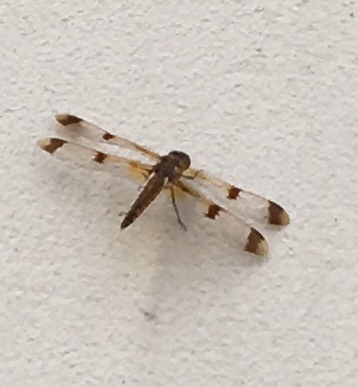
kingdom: Animalia
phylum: Arthropoda
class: Insecta
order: Odonata
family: Libellulidae
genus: Libellula
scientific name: Libellula semifasciata
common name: Painted skimmer
